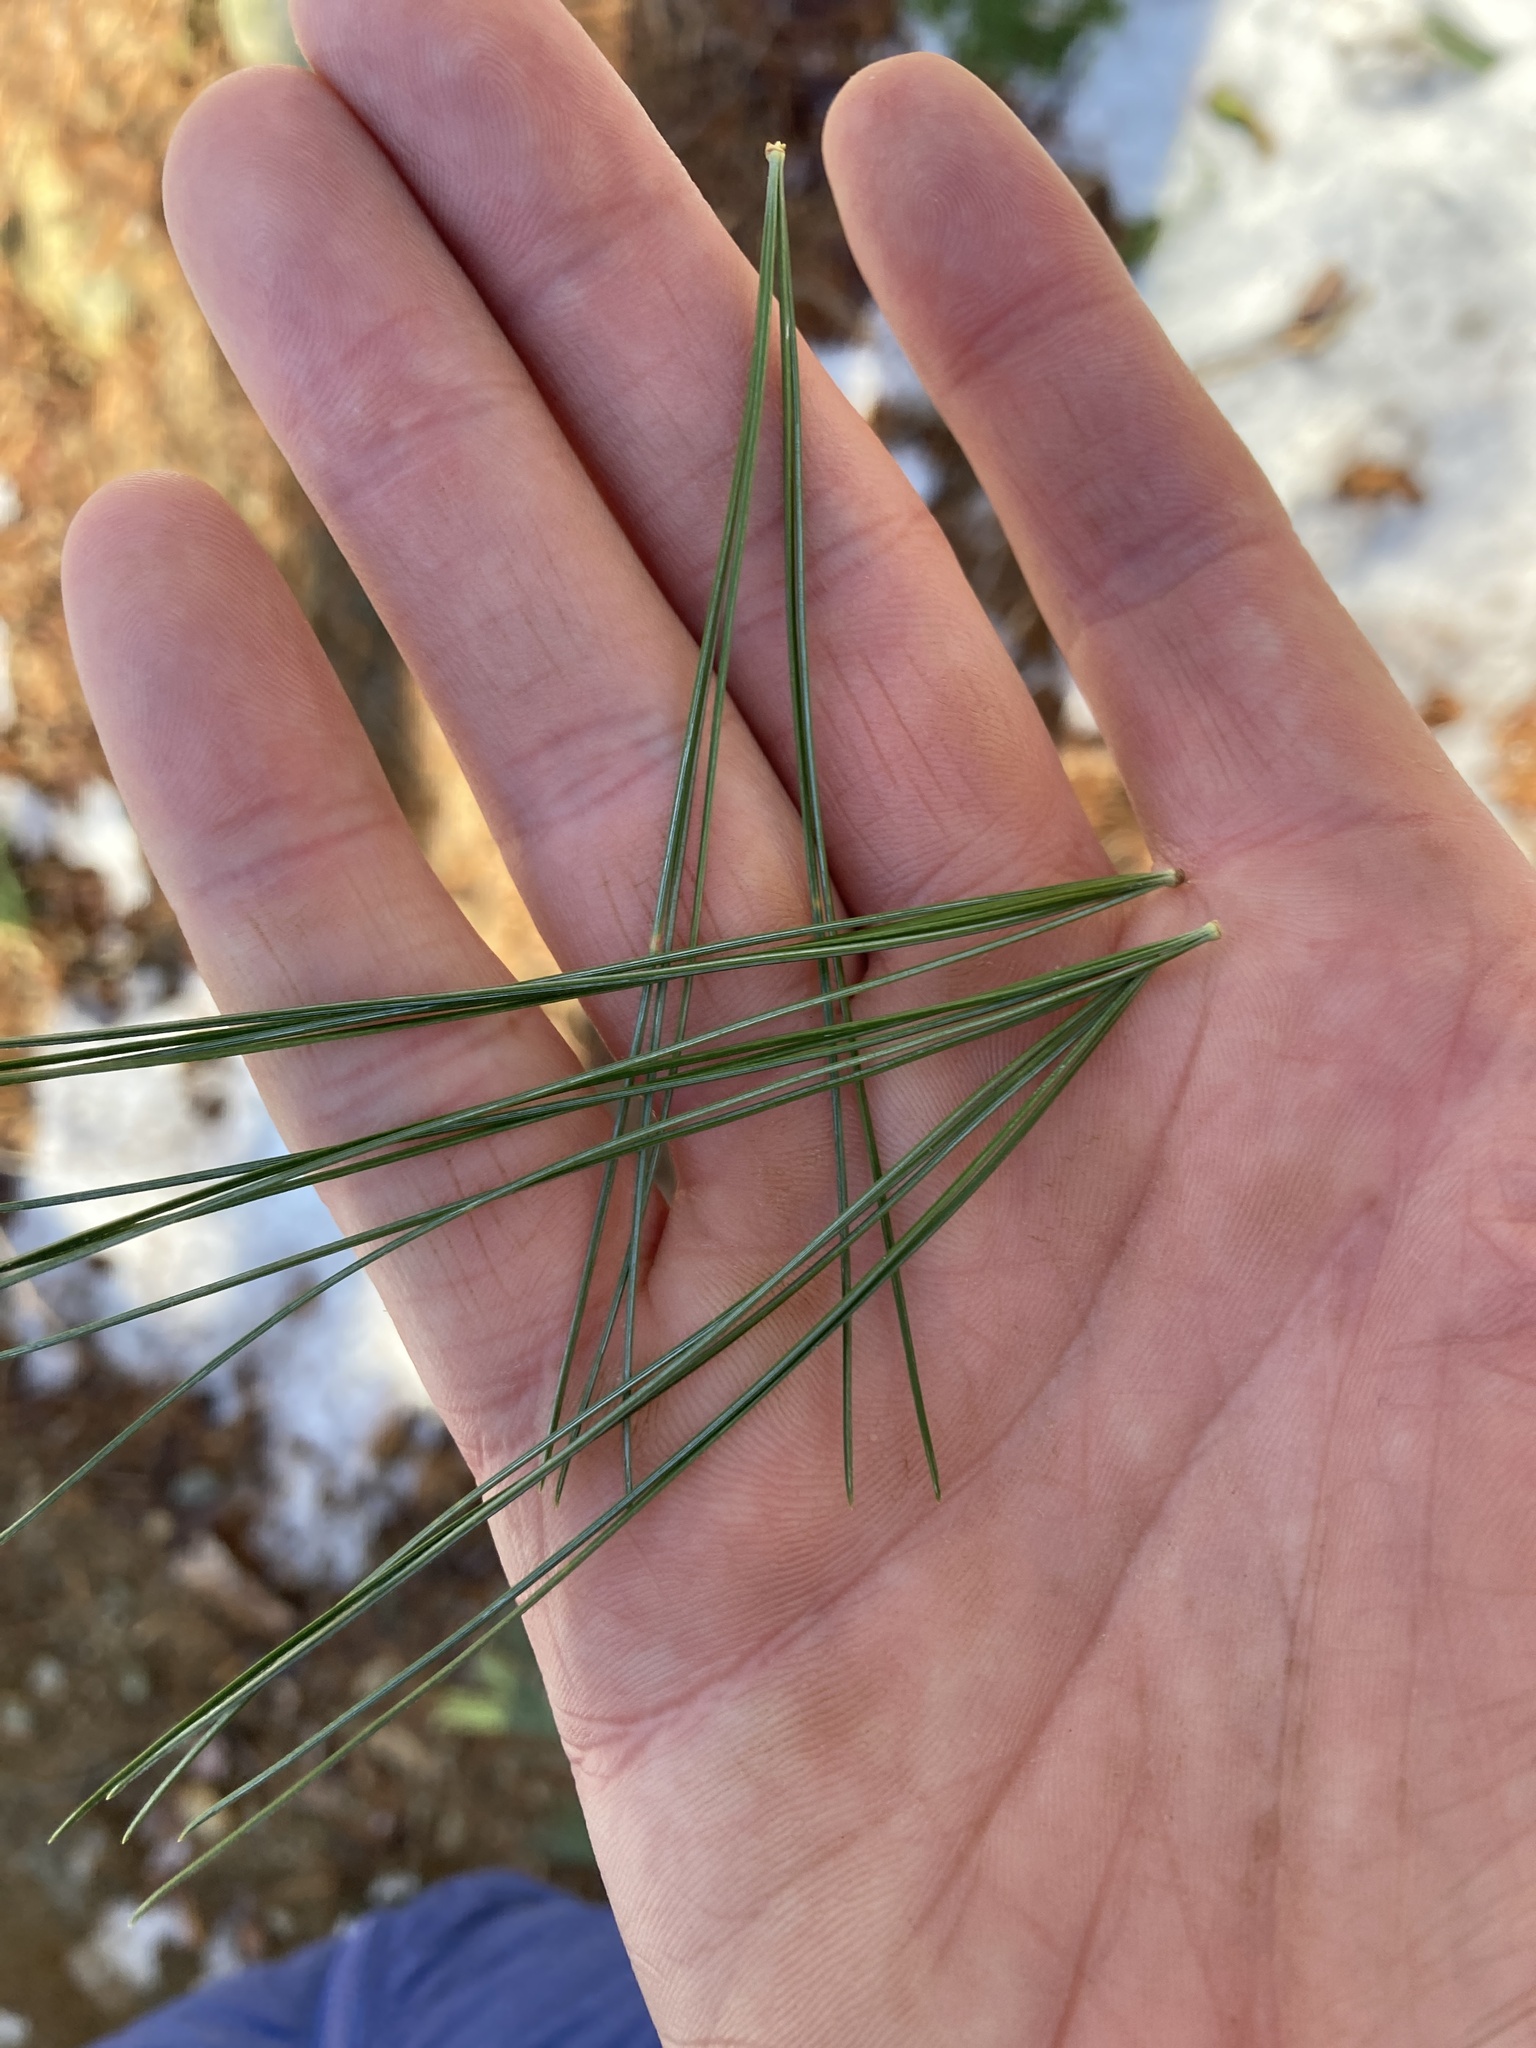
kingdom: Plantae
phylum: Tracheophyta
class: Pinopsida
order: Pinales
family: Pinaceae
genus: Pinus
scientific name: Pinus strobus
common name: Weymouth pine
